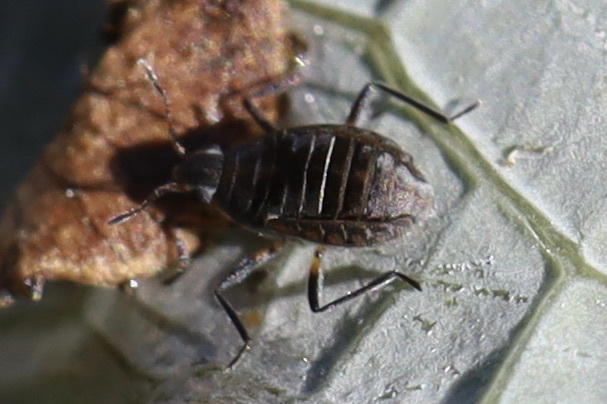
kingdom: Animalia
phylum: Arthropoda
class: Insecta
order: Hemiptera
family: Veliidae
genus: Microvelia
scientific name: Microvelia pulchella
